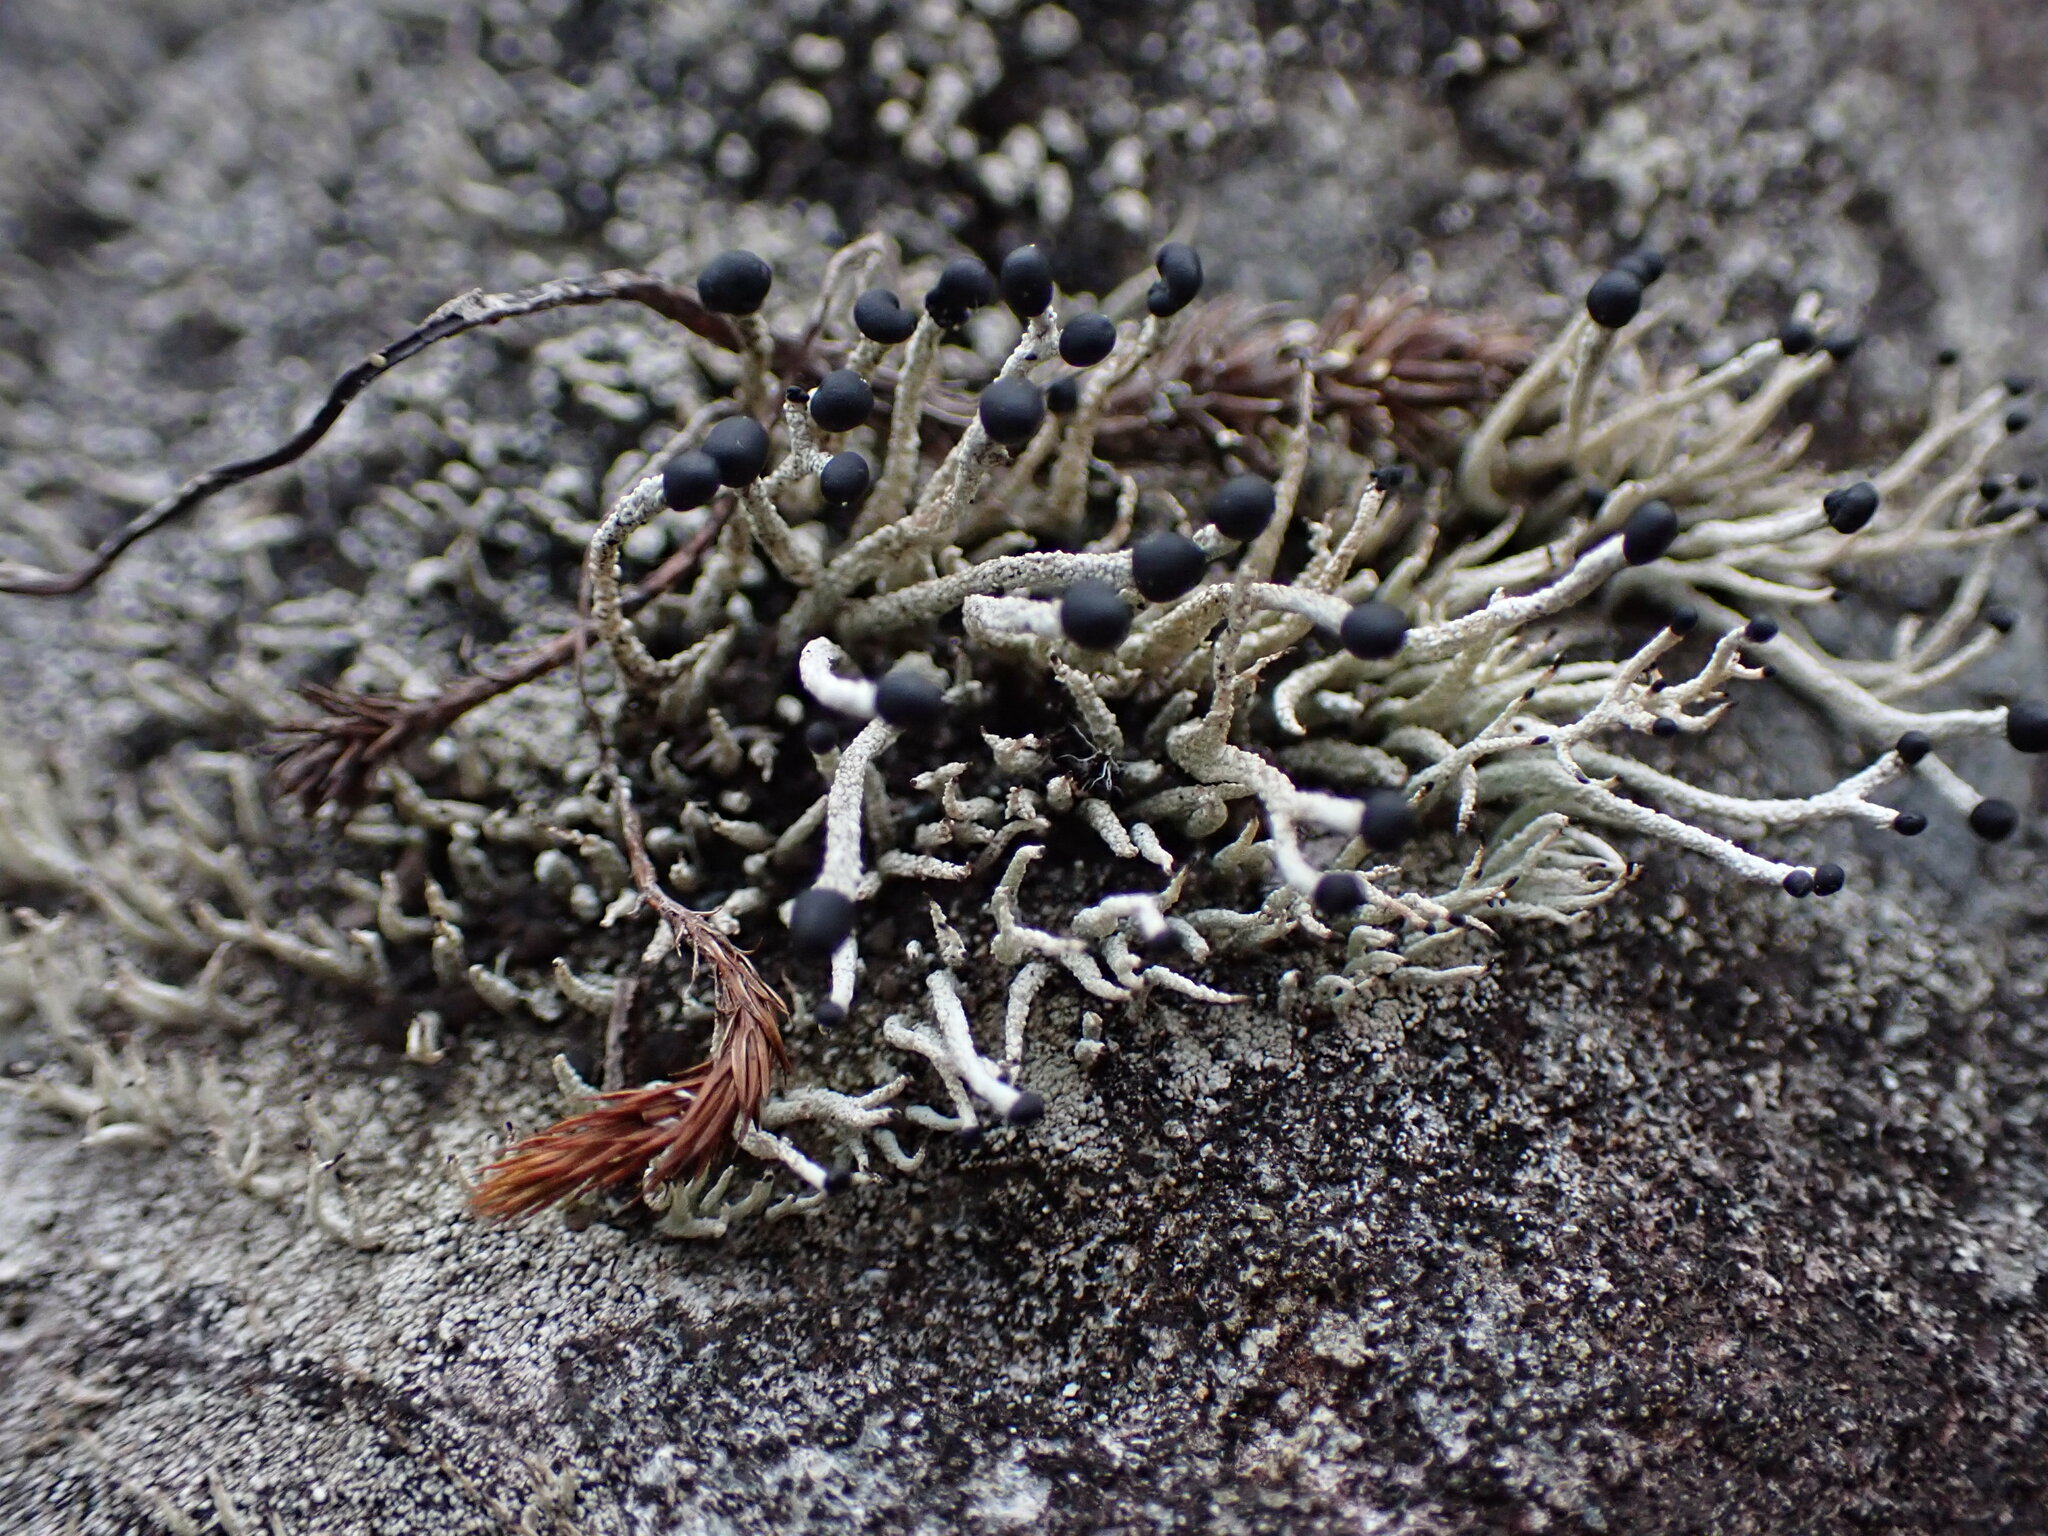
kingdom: Fungi
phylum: Ascomycota
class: Lecanoromycetes
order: Lecanorales
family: Cladoniaceae
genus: Pilophorus
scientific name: Pilophorus acicularis
